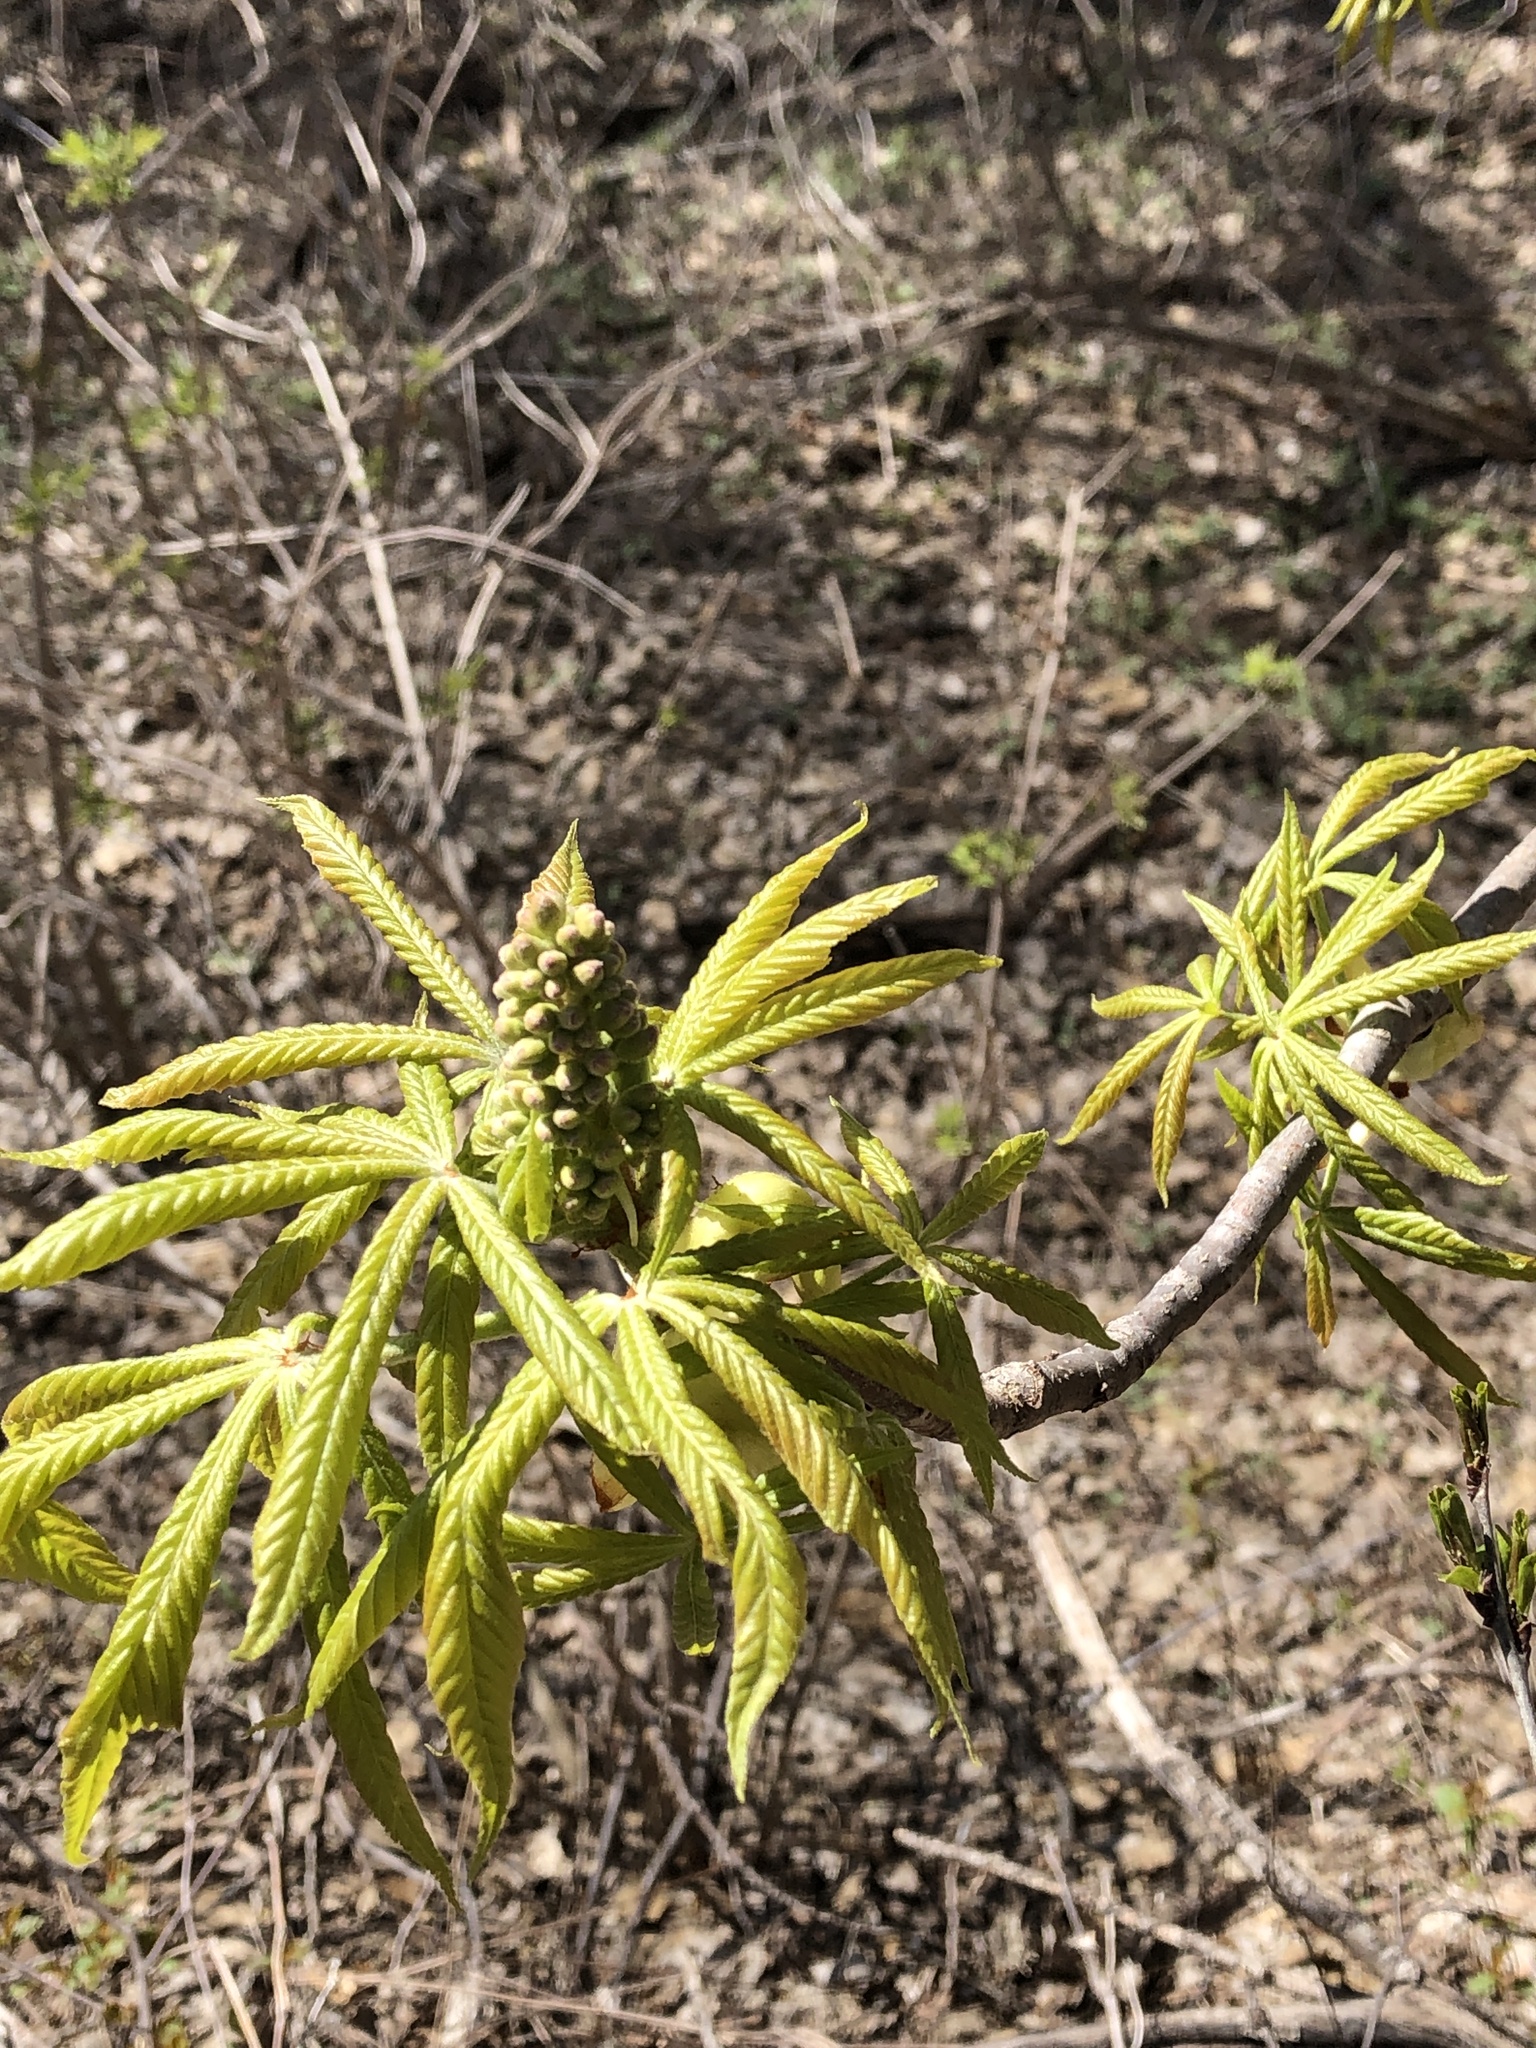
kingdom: Plantae
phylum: Tracheophyta
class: Magnoliopsida
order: Sapindales
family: Sapindaceae
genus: Aesculus
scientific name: Aesculus glabra
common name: Ohio buckeye
